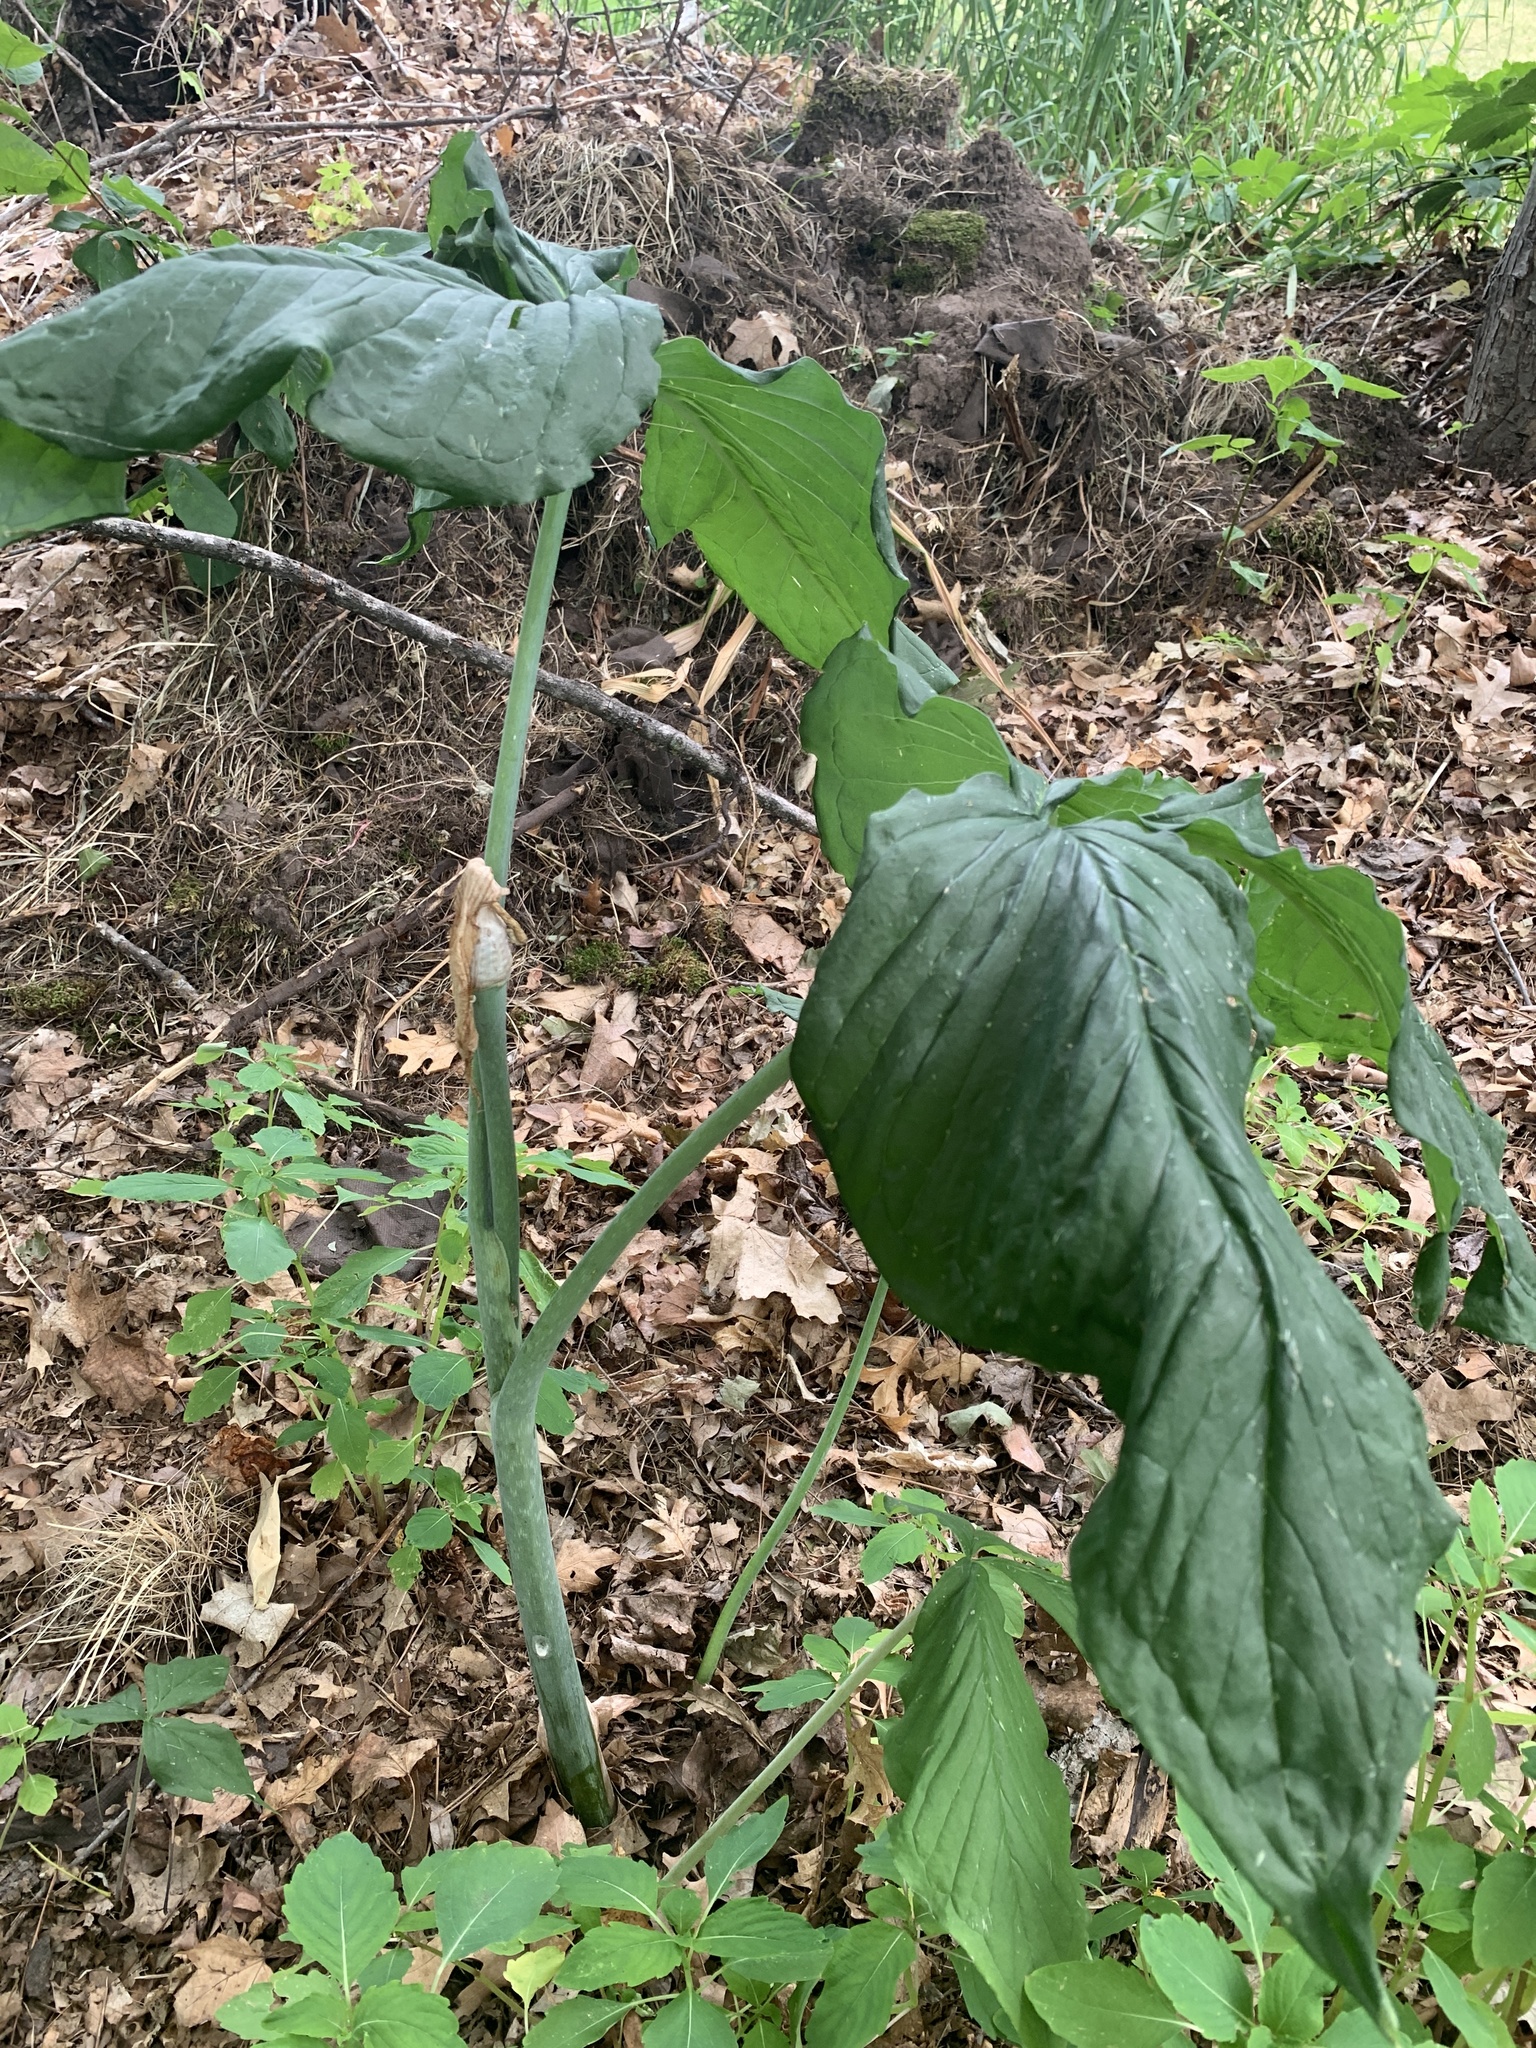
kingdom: Plantae
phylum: Tracheophyta
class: Liliopsida
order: Alismatales
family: Araceae
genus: Arisaema
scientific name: Arisaema triphyllum
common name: Jack-in-the-pulpit
